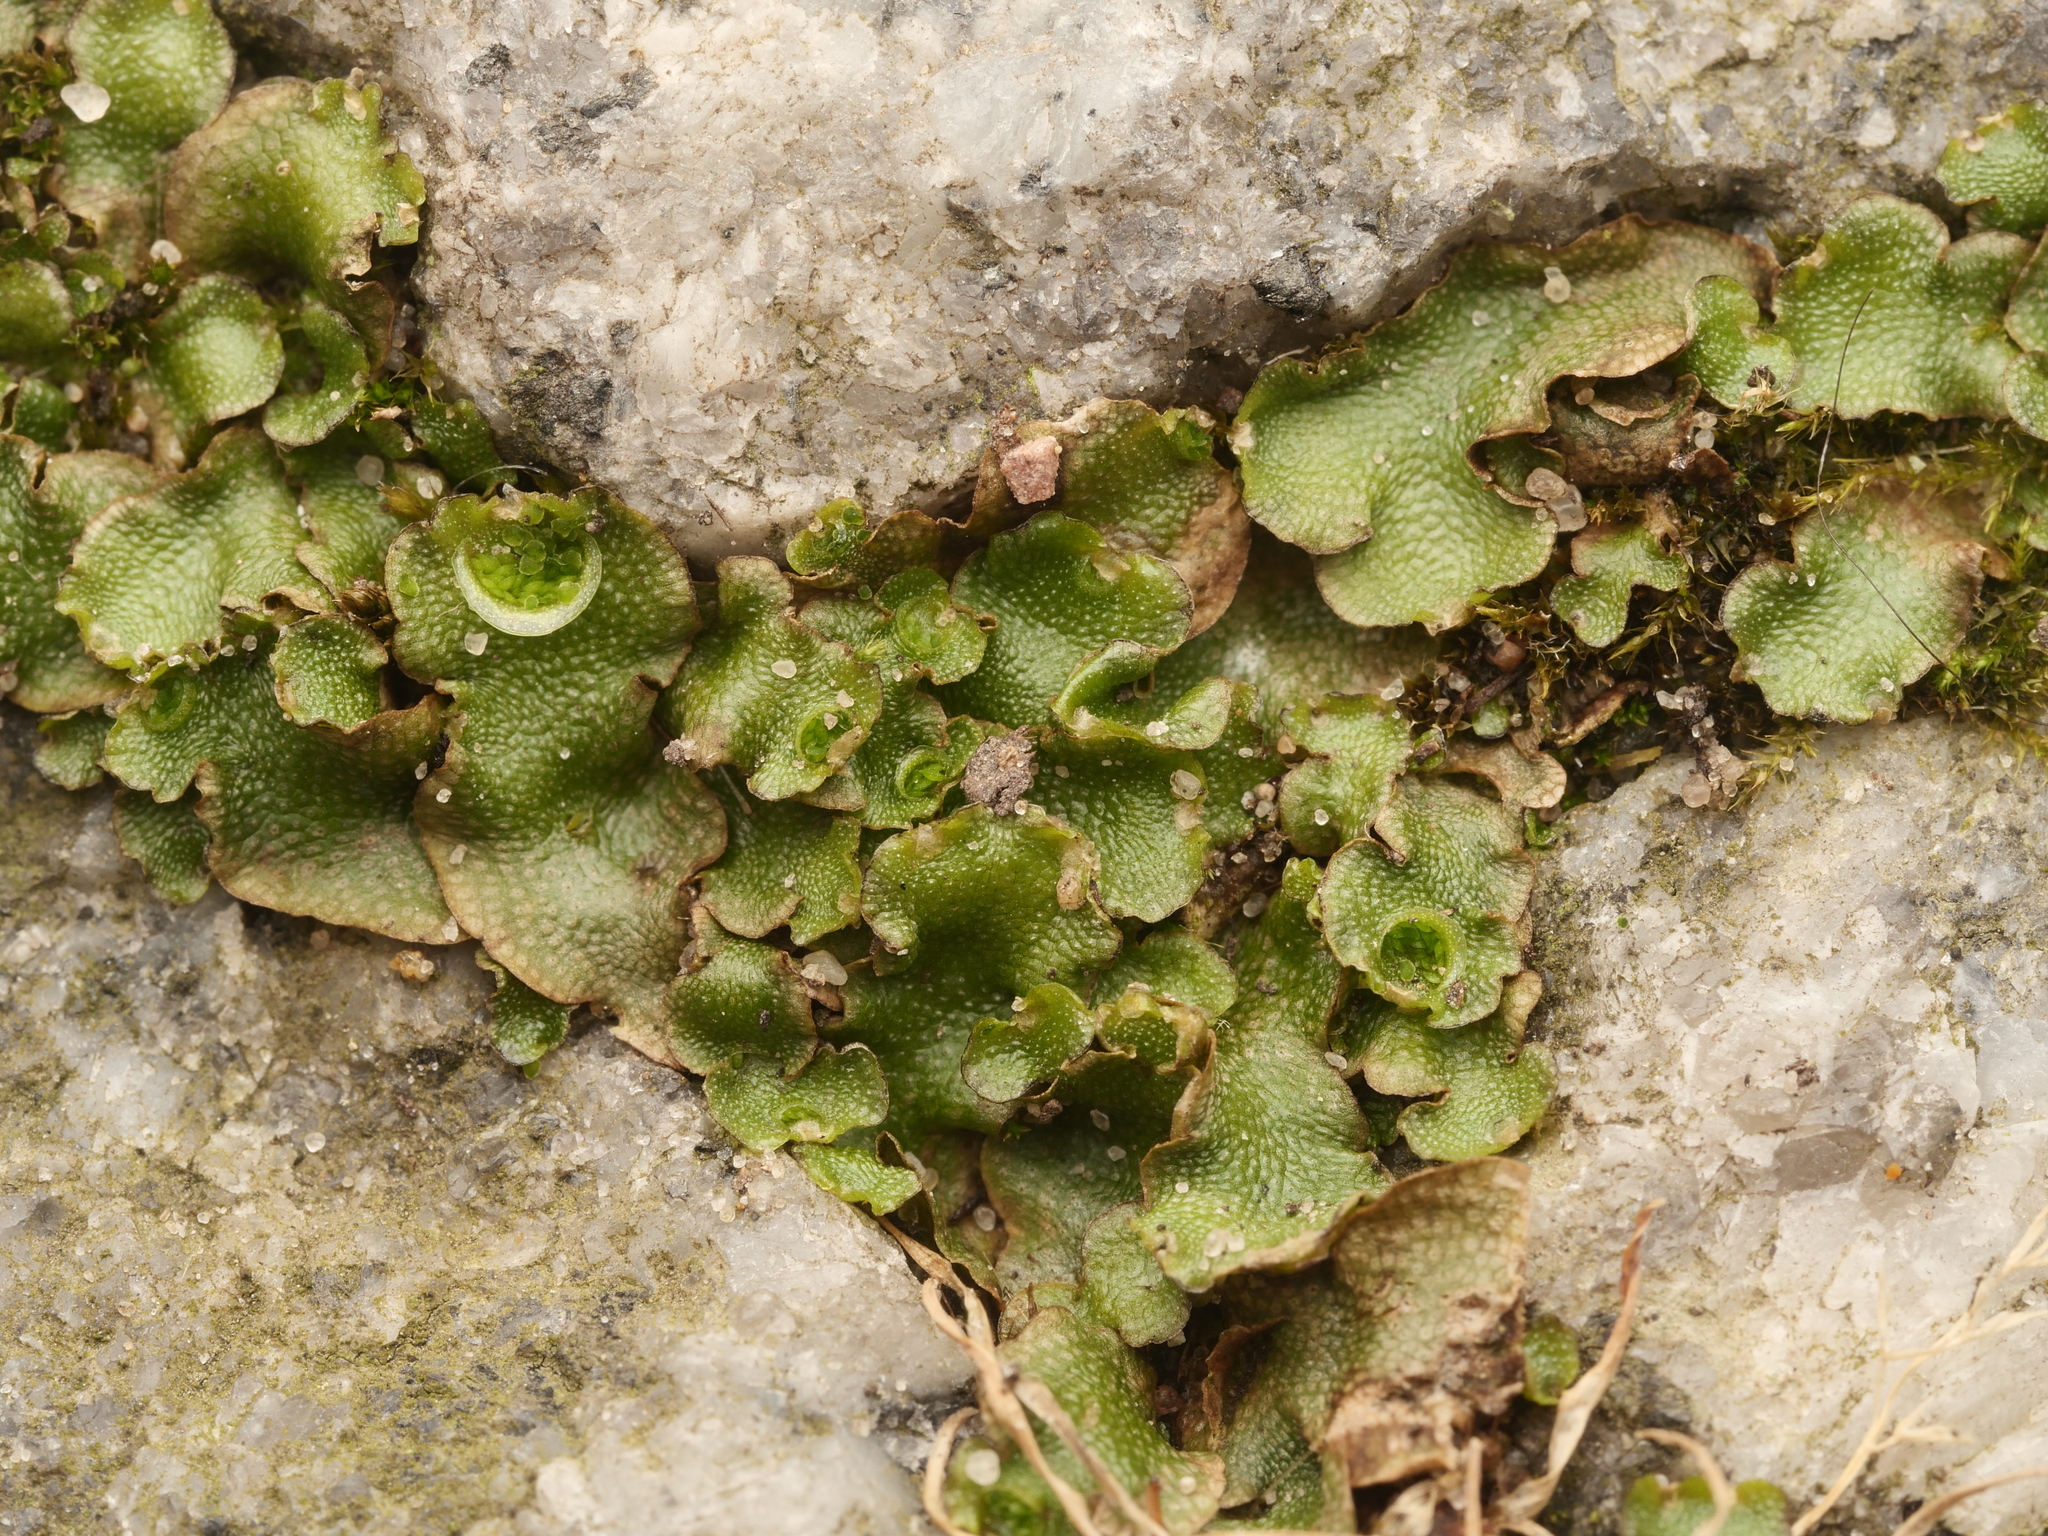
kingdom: Plantae
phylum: Marchantiophyta
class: Marchantiopsida
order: Lunulariales
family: Lunulariaceae
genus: Lunularia
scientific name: Lunularia cruciata
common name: Crescent-cup liverwort
